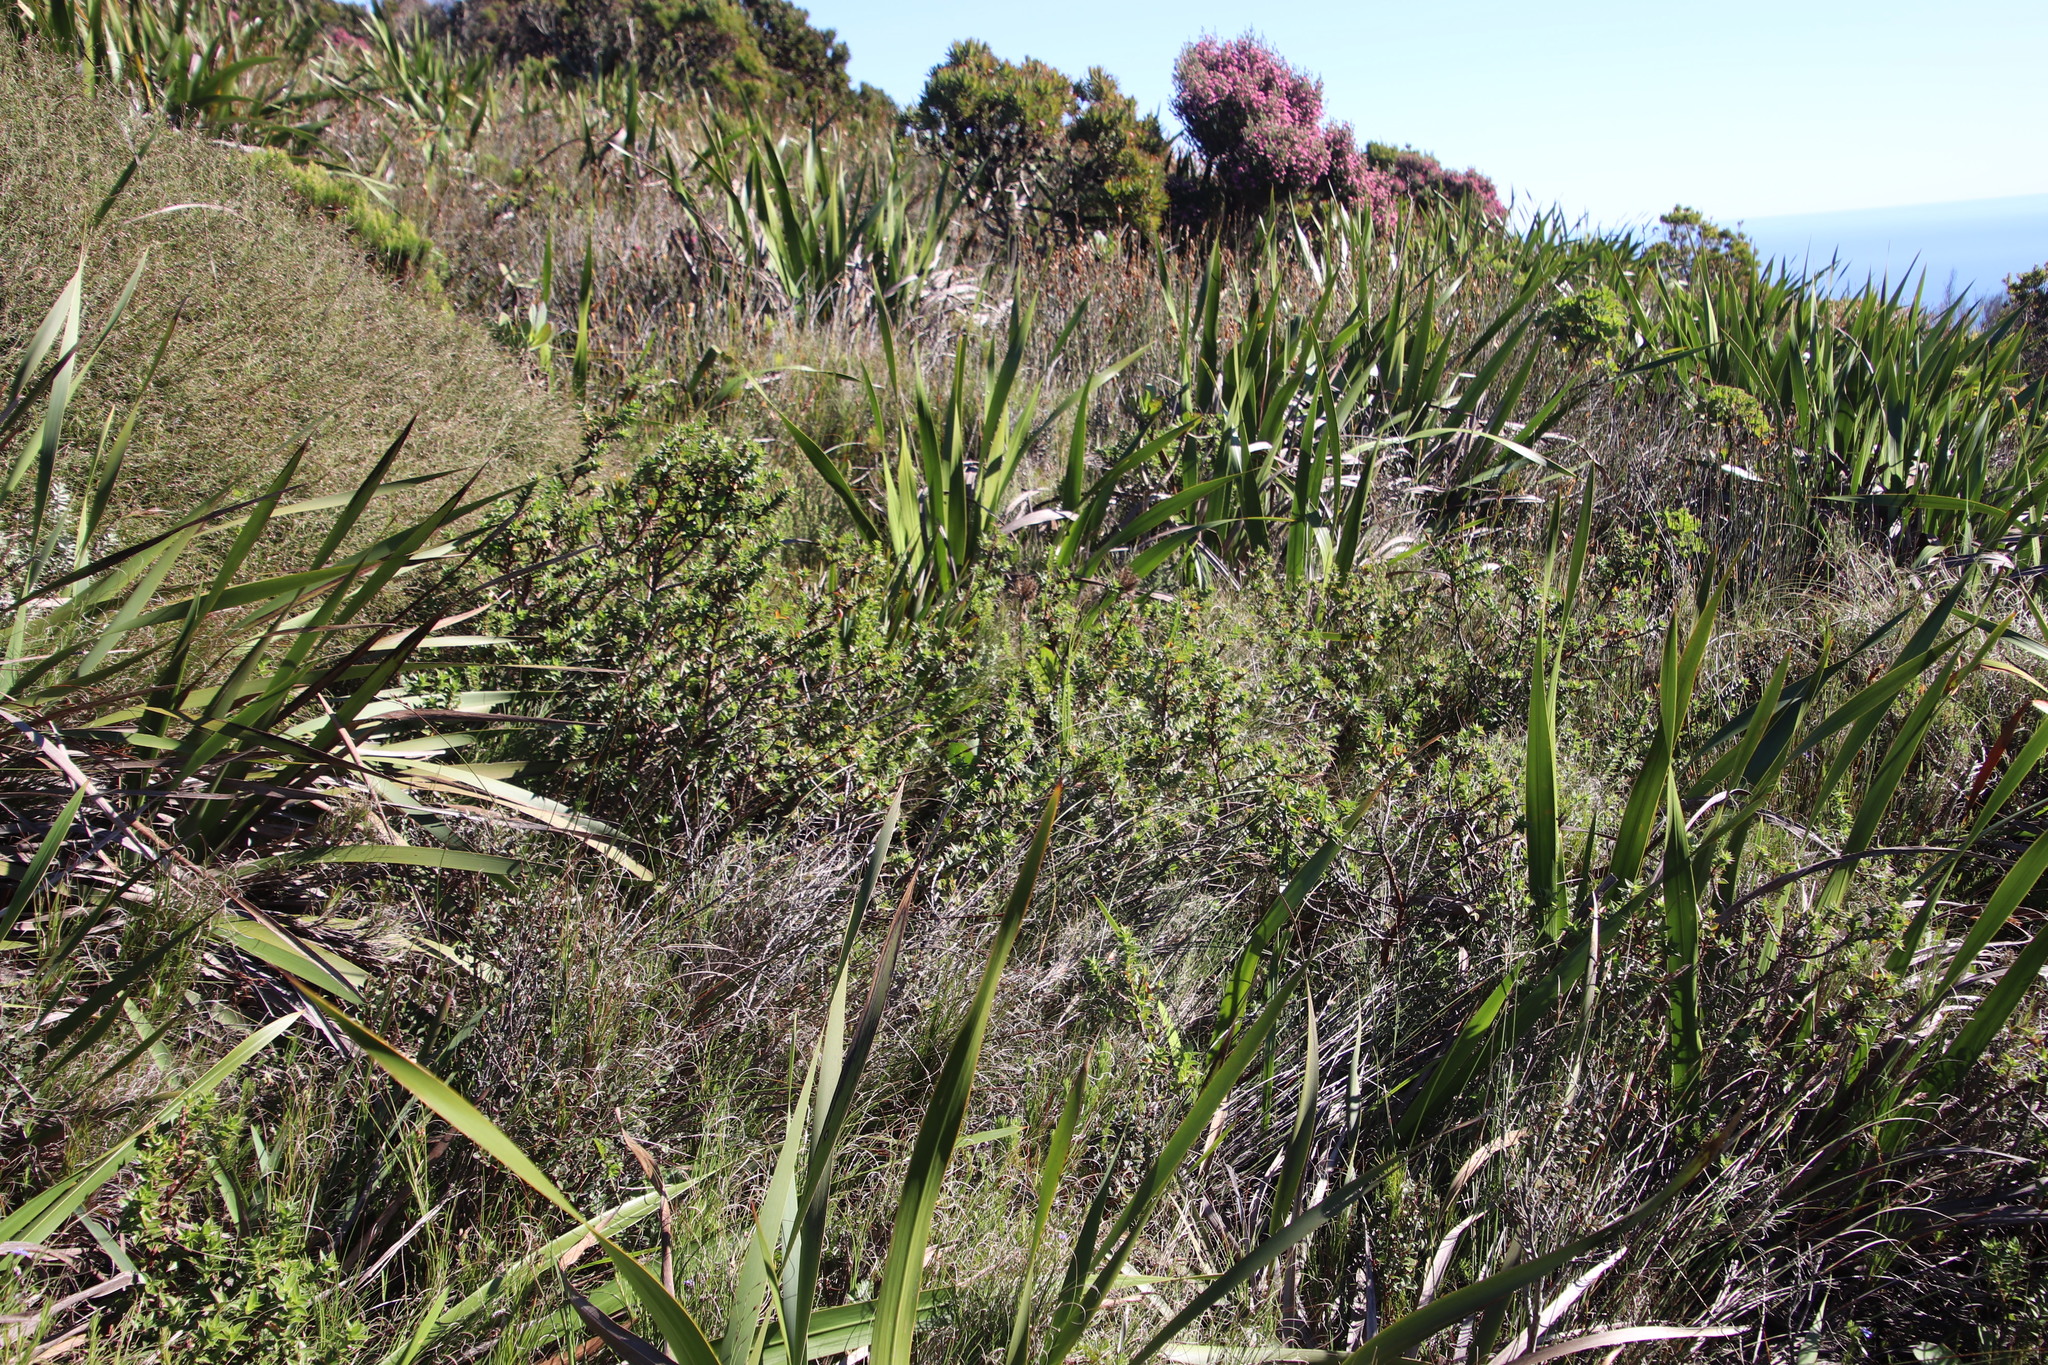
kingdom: Plantae
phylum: Tracheophyta
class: Magnoliopsida
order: Rosales
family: Rosaceae
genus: Cliffortia
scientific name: Cliffortia integerrima
